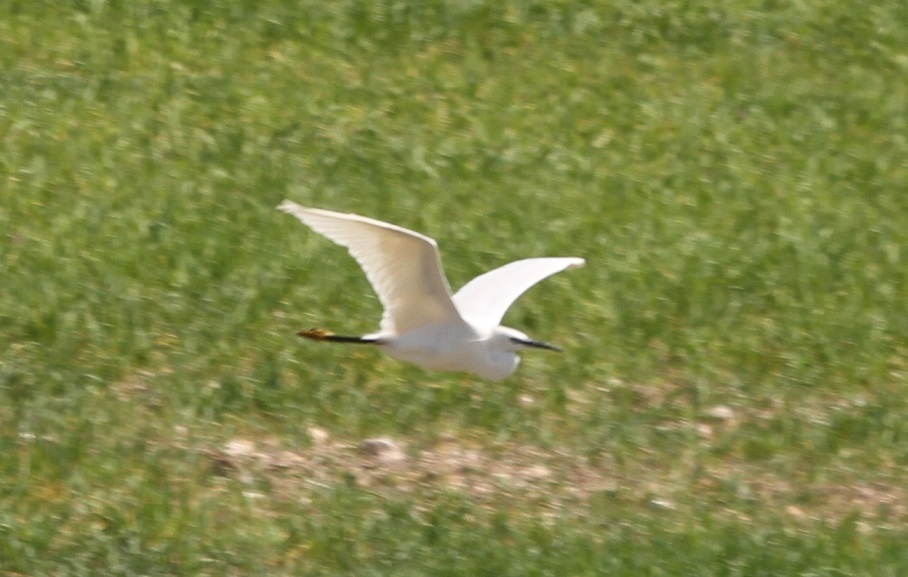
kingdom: Animalia
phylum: Chordata
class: Aves
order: Pelecaniformes
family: Ardeidae
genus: Egretta
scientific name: Egretta garzetta
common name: Little egret
